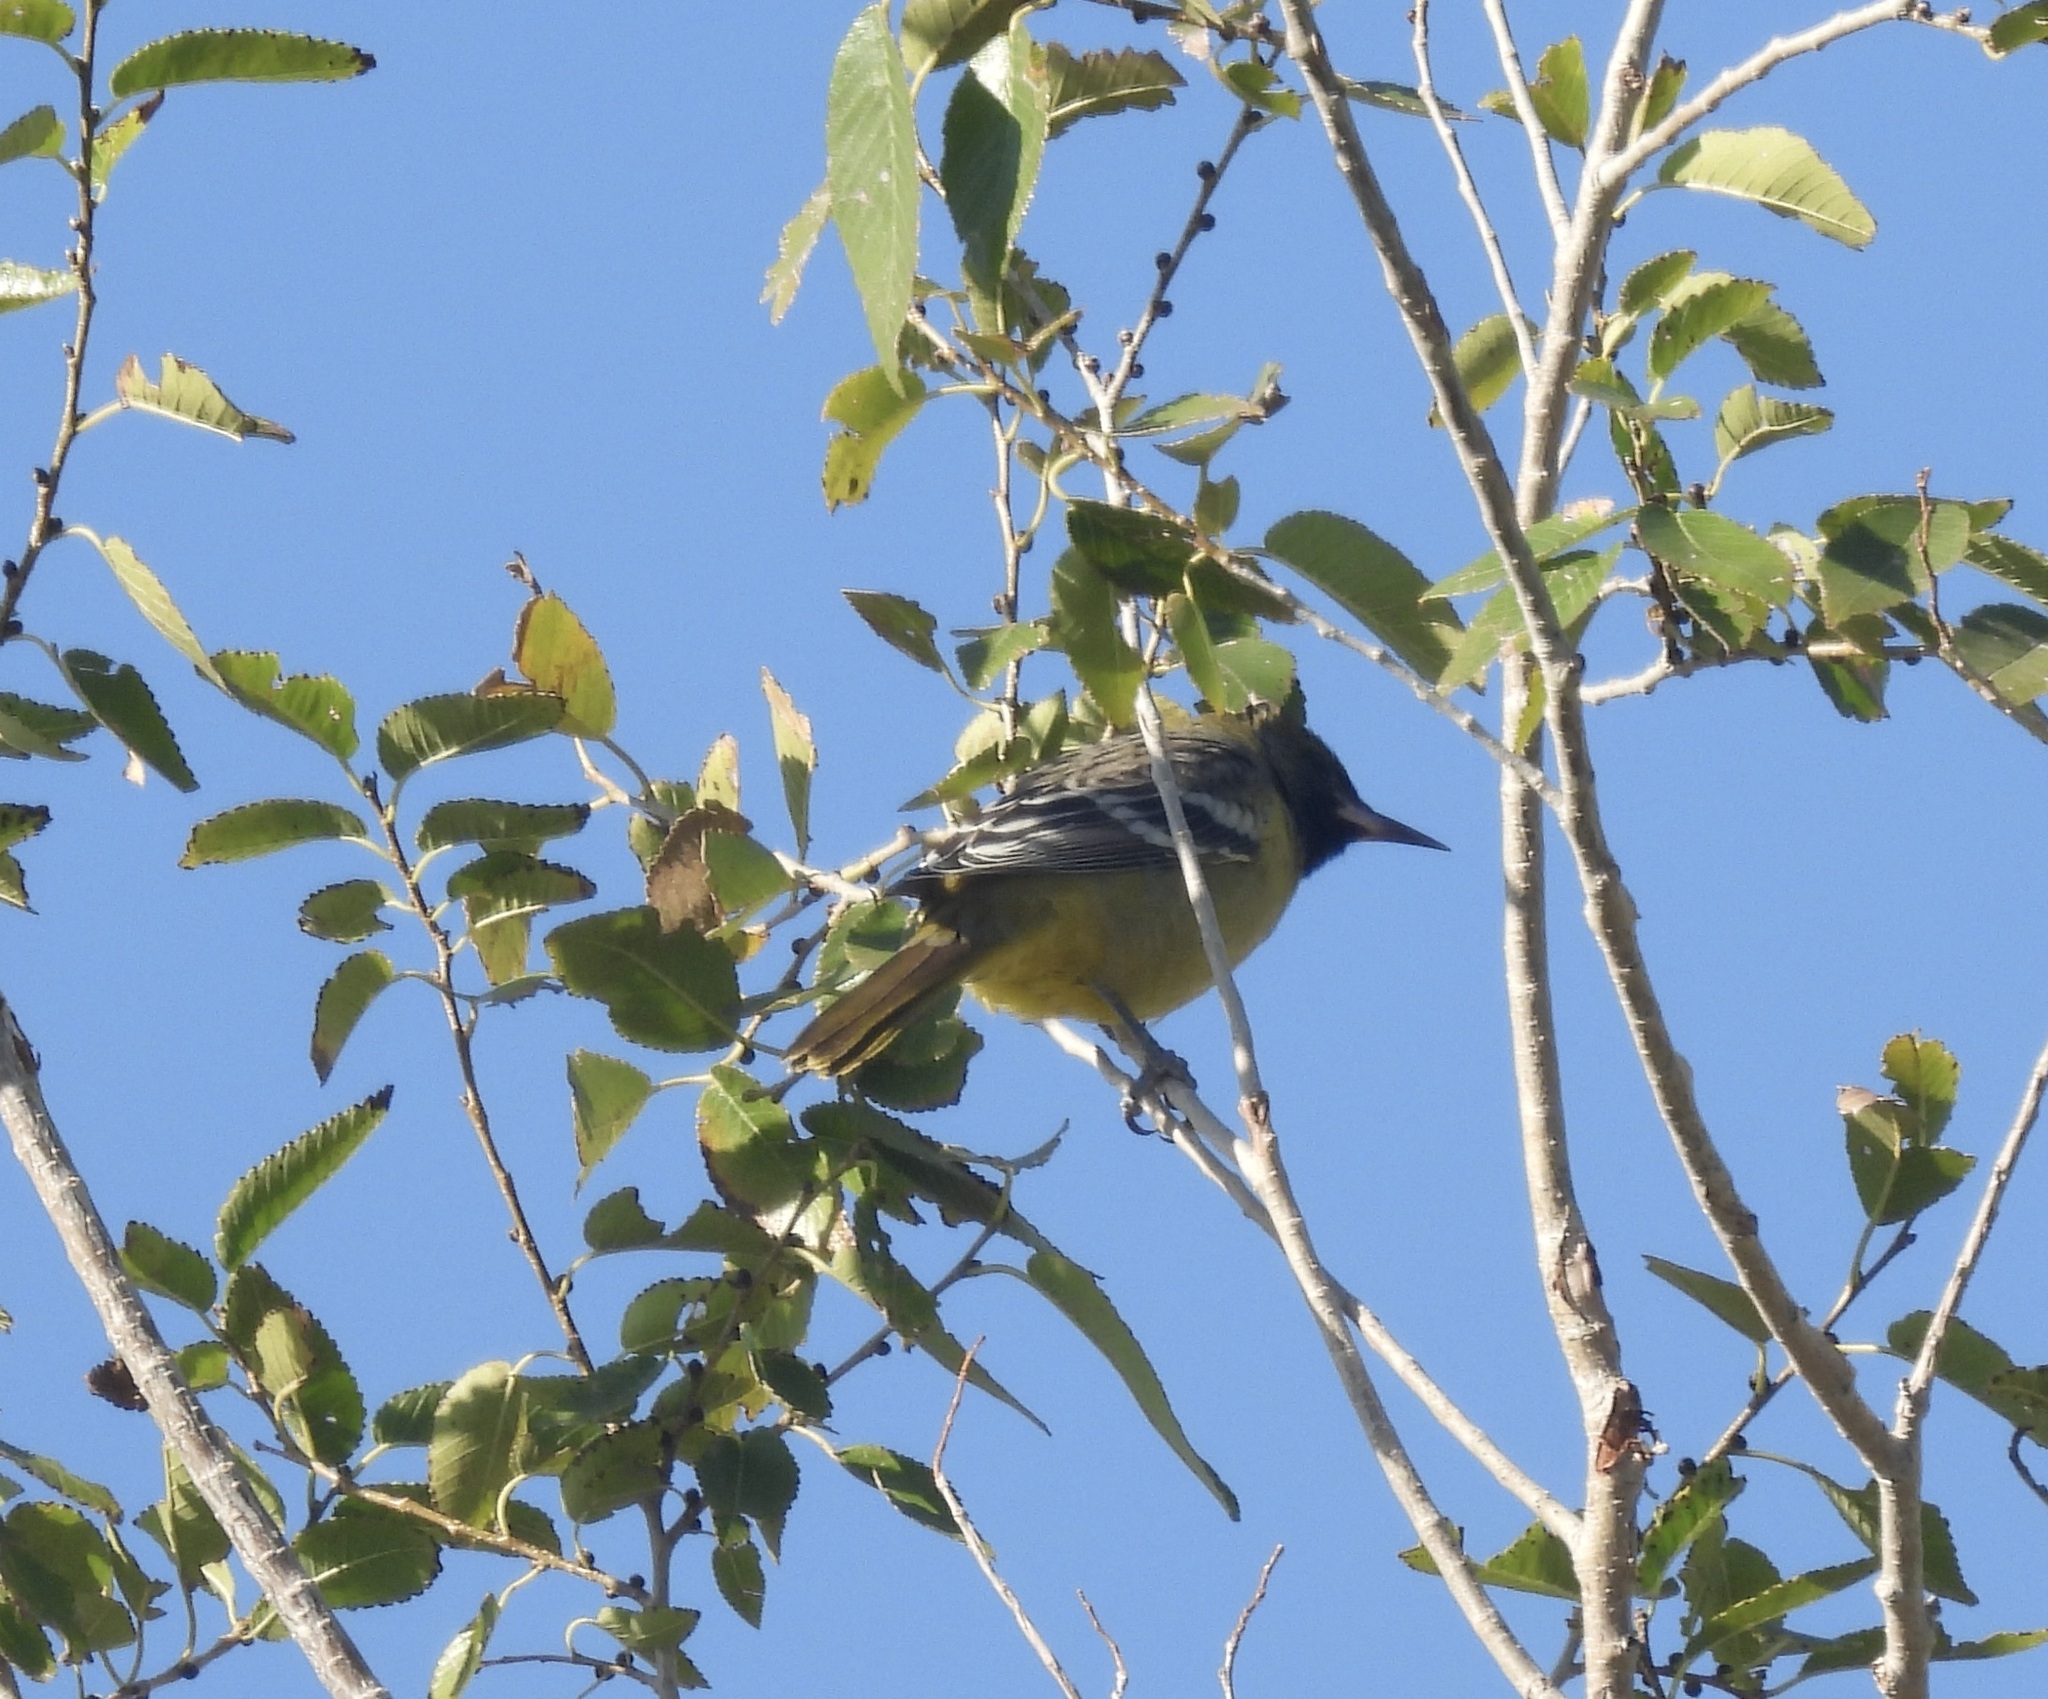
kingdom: Animalia
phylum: Chordata
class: Aves
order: Passeriformes
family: Icteridae
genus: Icterus
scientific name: Icterus parisorum
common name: Scott's oriole
